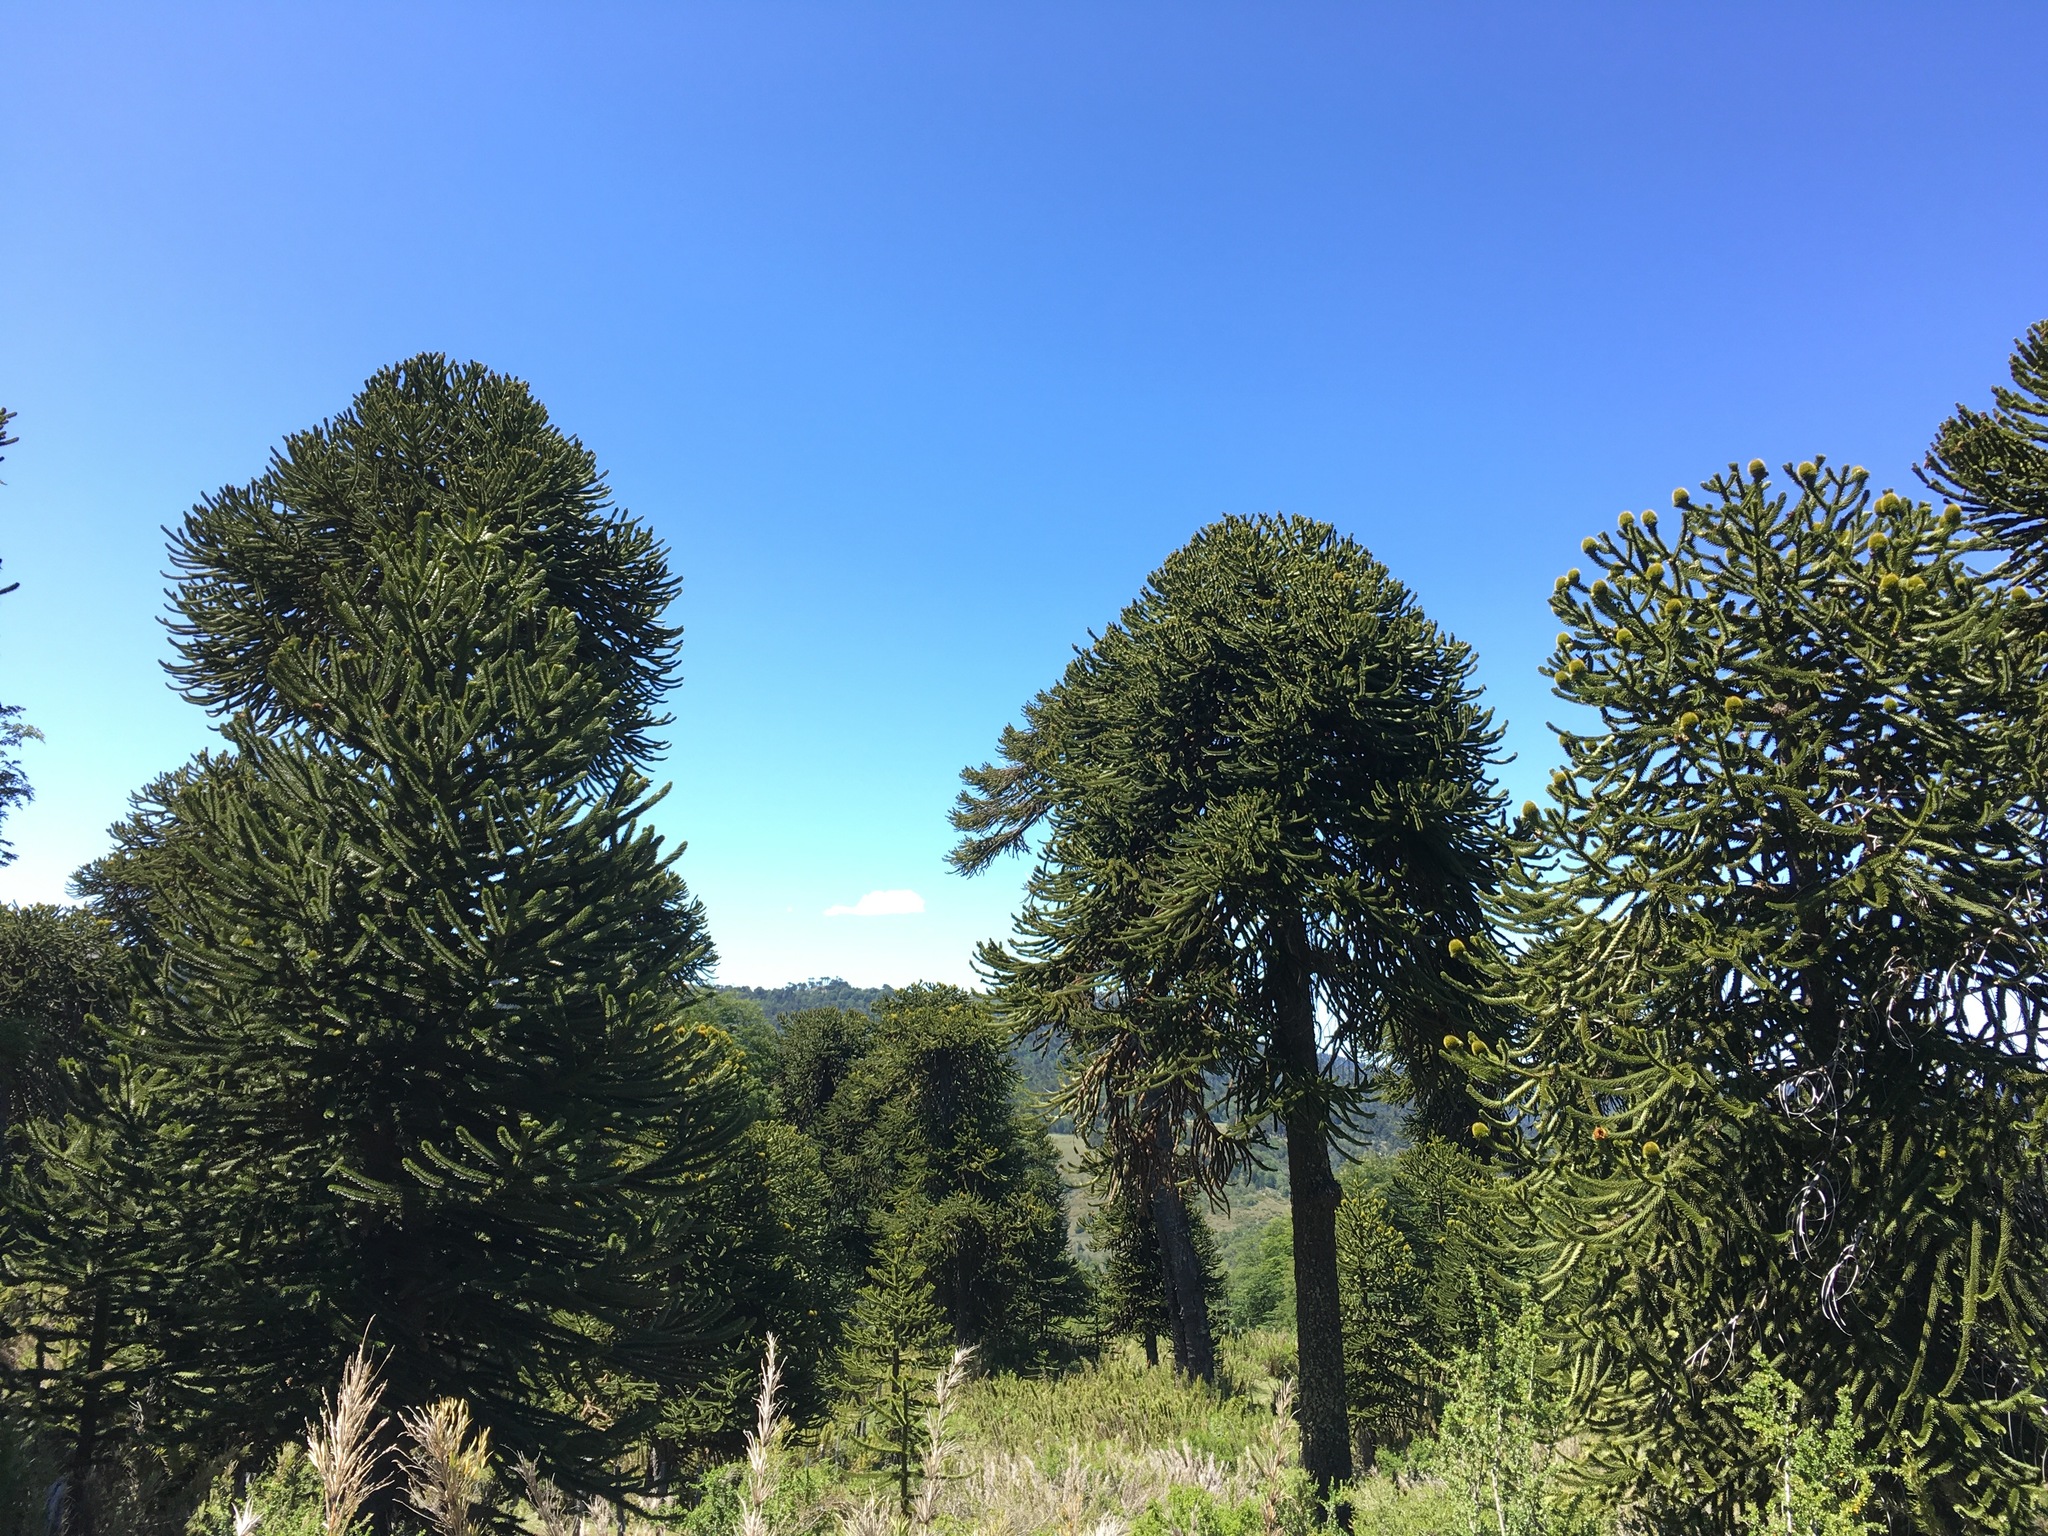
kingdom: Plantae
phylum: Tracheophyta
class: Pinopsida
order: Pinales
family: Araucariaceae
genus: Araucaria
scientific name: Araucaria araucana
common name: Monkey-puzzle
